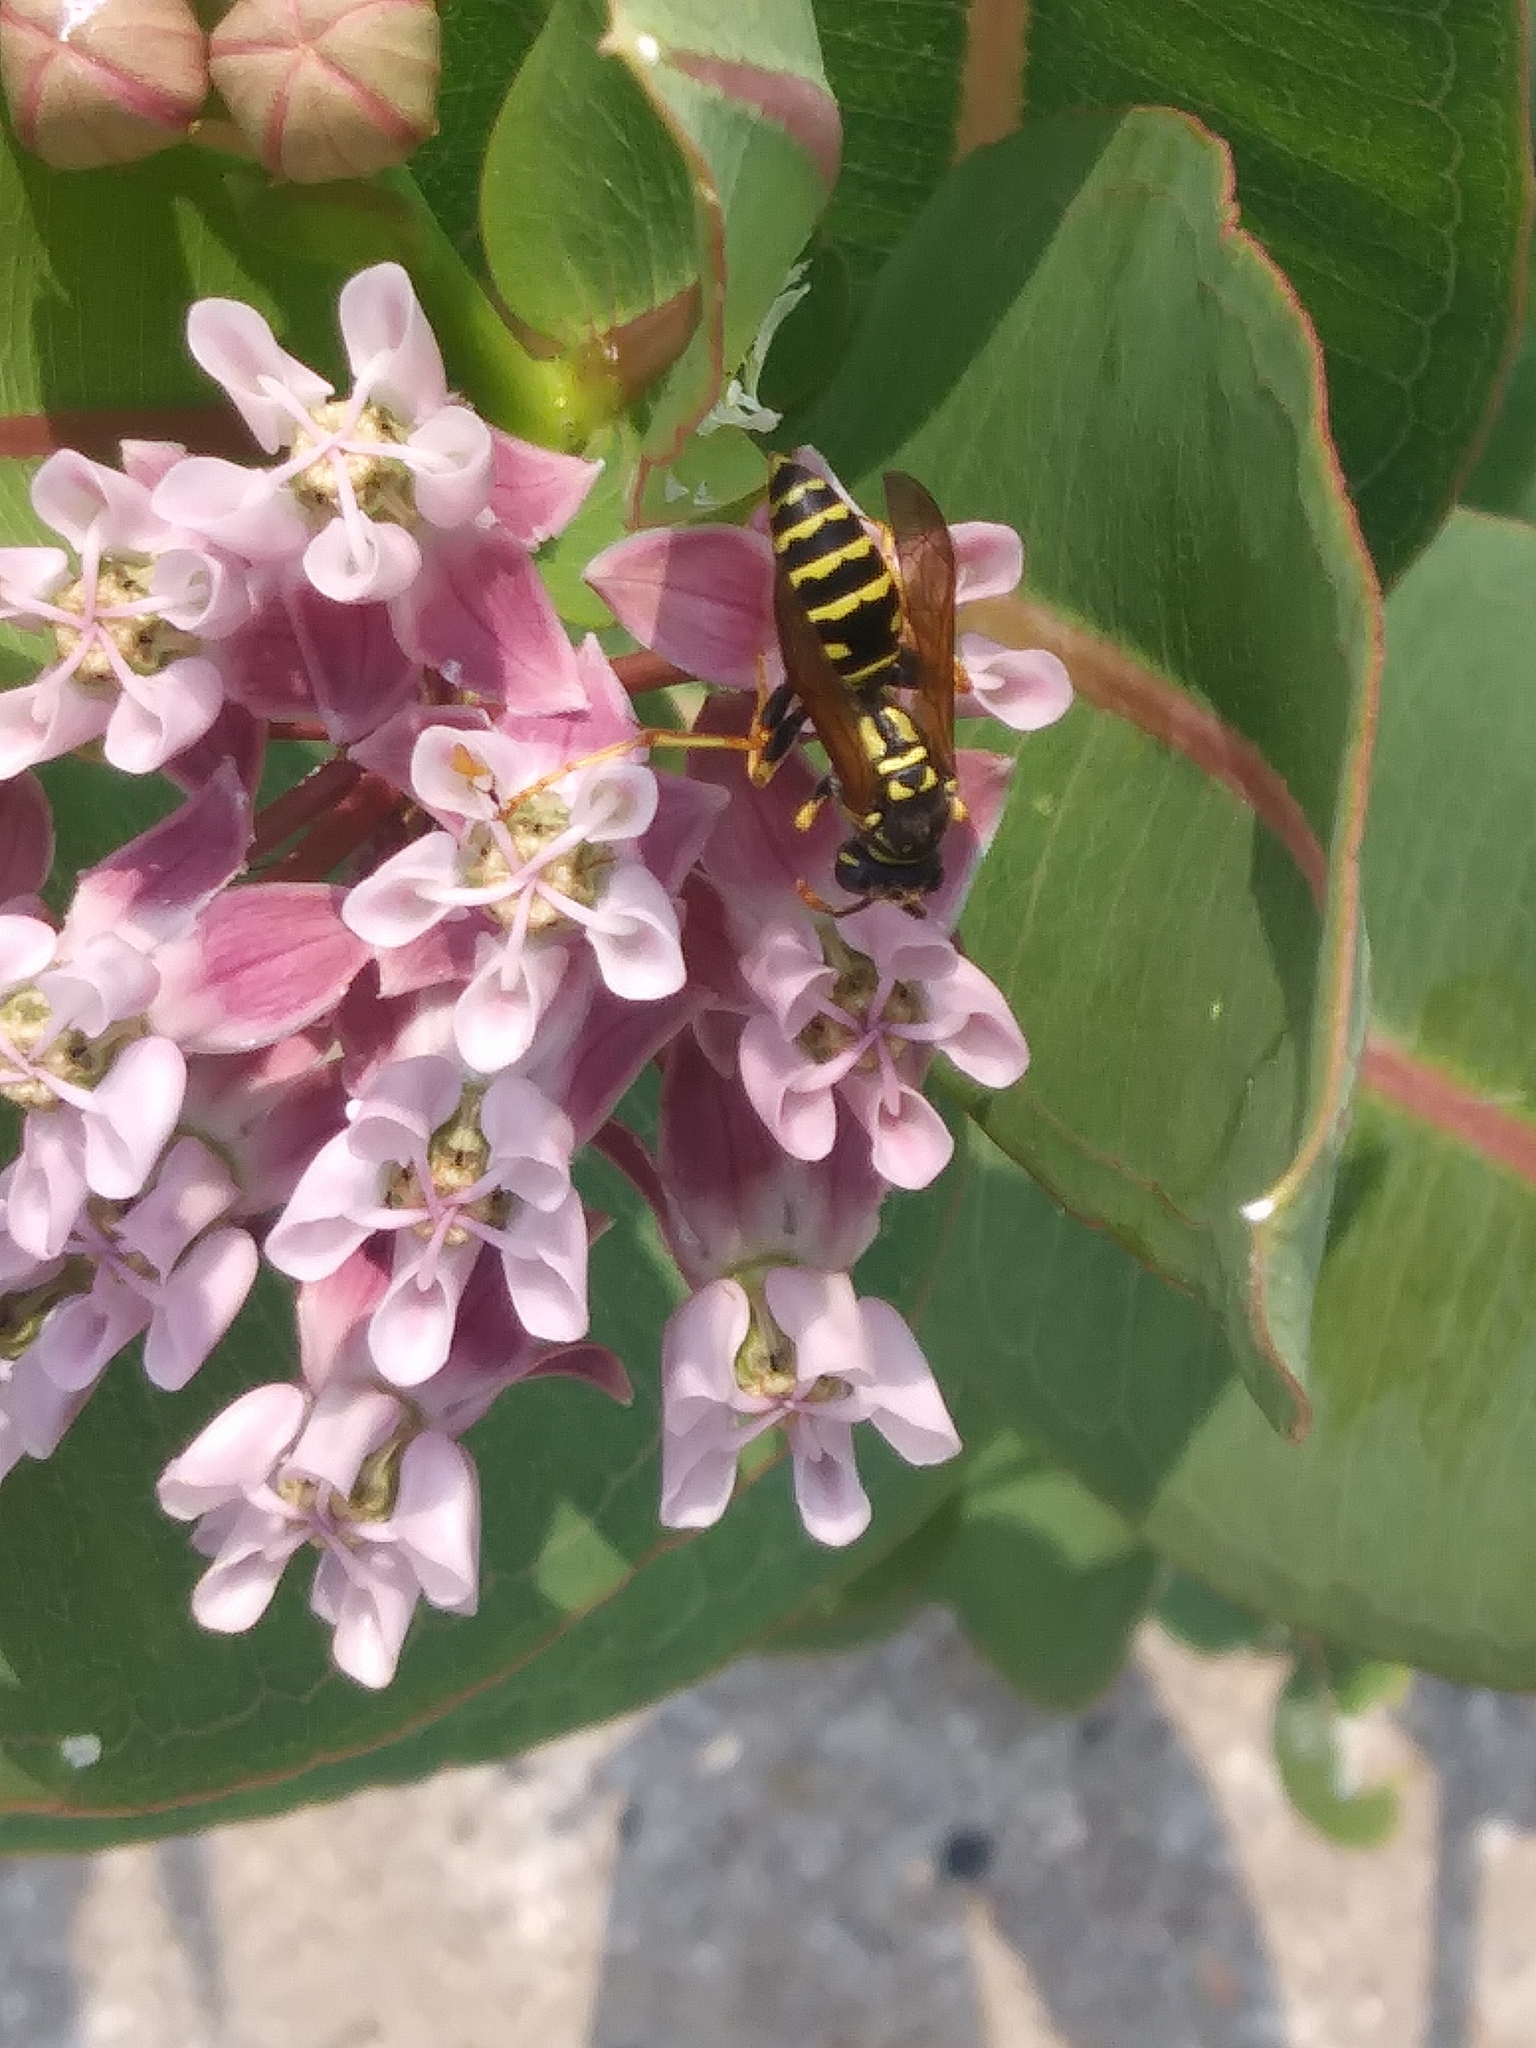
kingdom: Animalia
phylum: Arthropoda
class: Insecta
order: Hymenoptera
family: Eumenidae
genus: Polistes
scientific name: Polistes dominula
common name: Paper wasp
